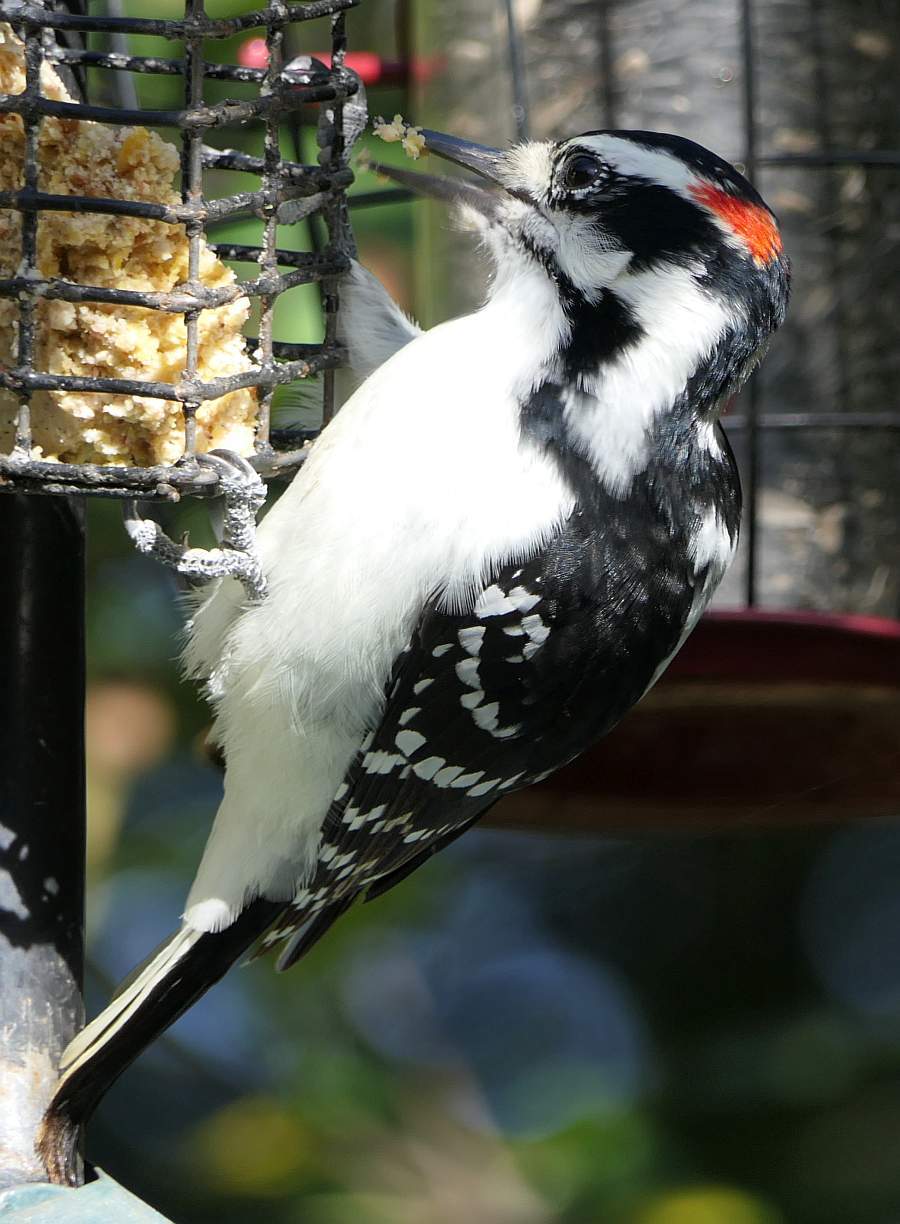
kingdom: Animalia
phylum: Chordata
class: Aves
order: Piciformes
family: Picidae
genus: Leuconotopicus
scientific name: Leuconotopicus villosus
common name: Hairy woodpecker
